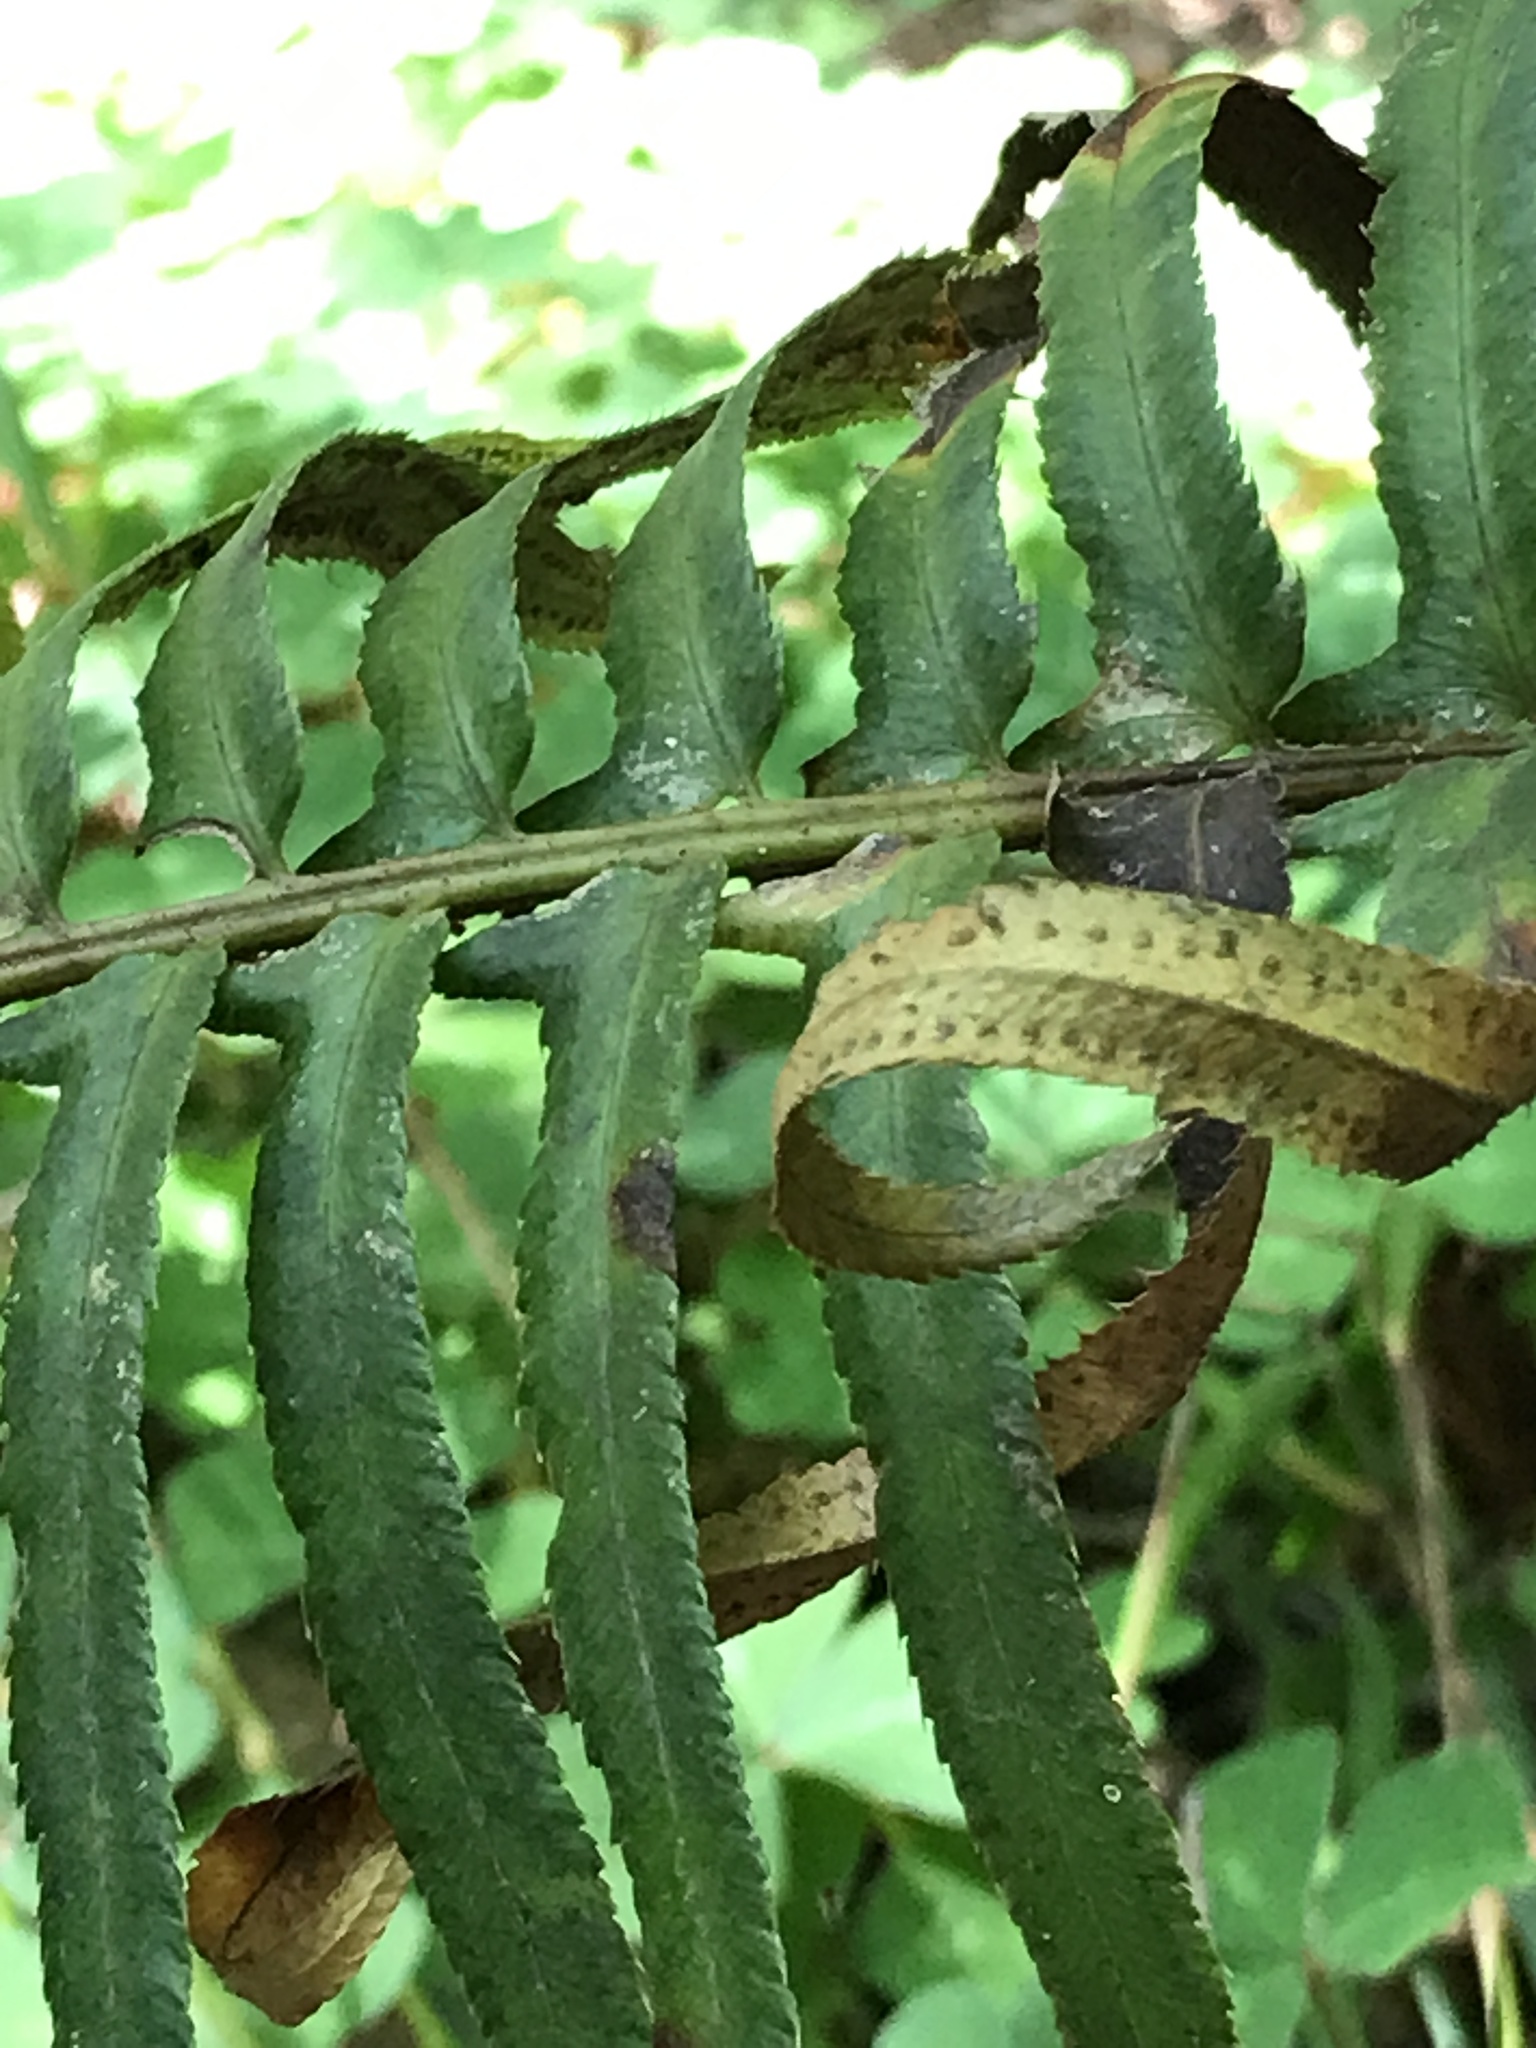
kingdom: Plantae
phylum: Tracheophyta
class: Polypodiopsida
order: Polypodiales
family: Dryopteridaceae
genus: Polystichum
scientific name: Polystichum munitum
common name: Western sword-fern
